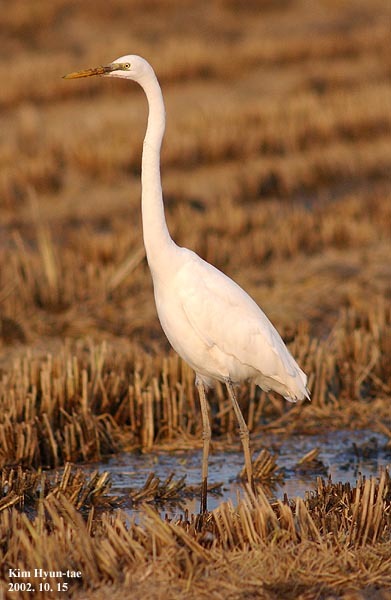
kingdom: Animalia
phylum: Chordata
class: Aves
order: Pelecaniformes
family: Ardeidae
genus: Ardea
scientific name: Ardea alba
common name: Great egret
